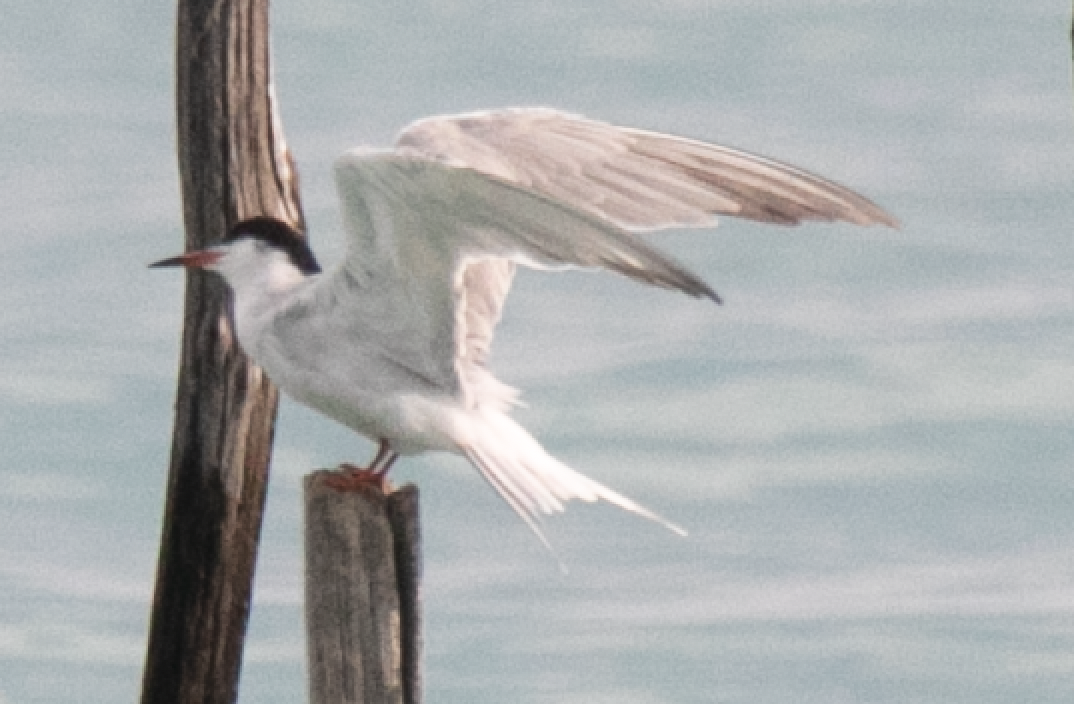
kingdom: Animalia
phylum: Chordata
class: Aves
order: Charadriiformes
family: Laridae
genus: Sterna
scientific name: Sterna hirundo
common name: Common tern
